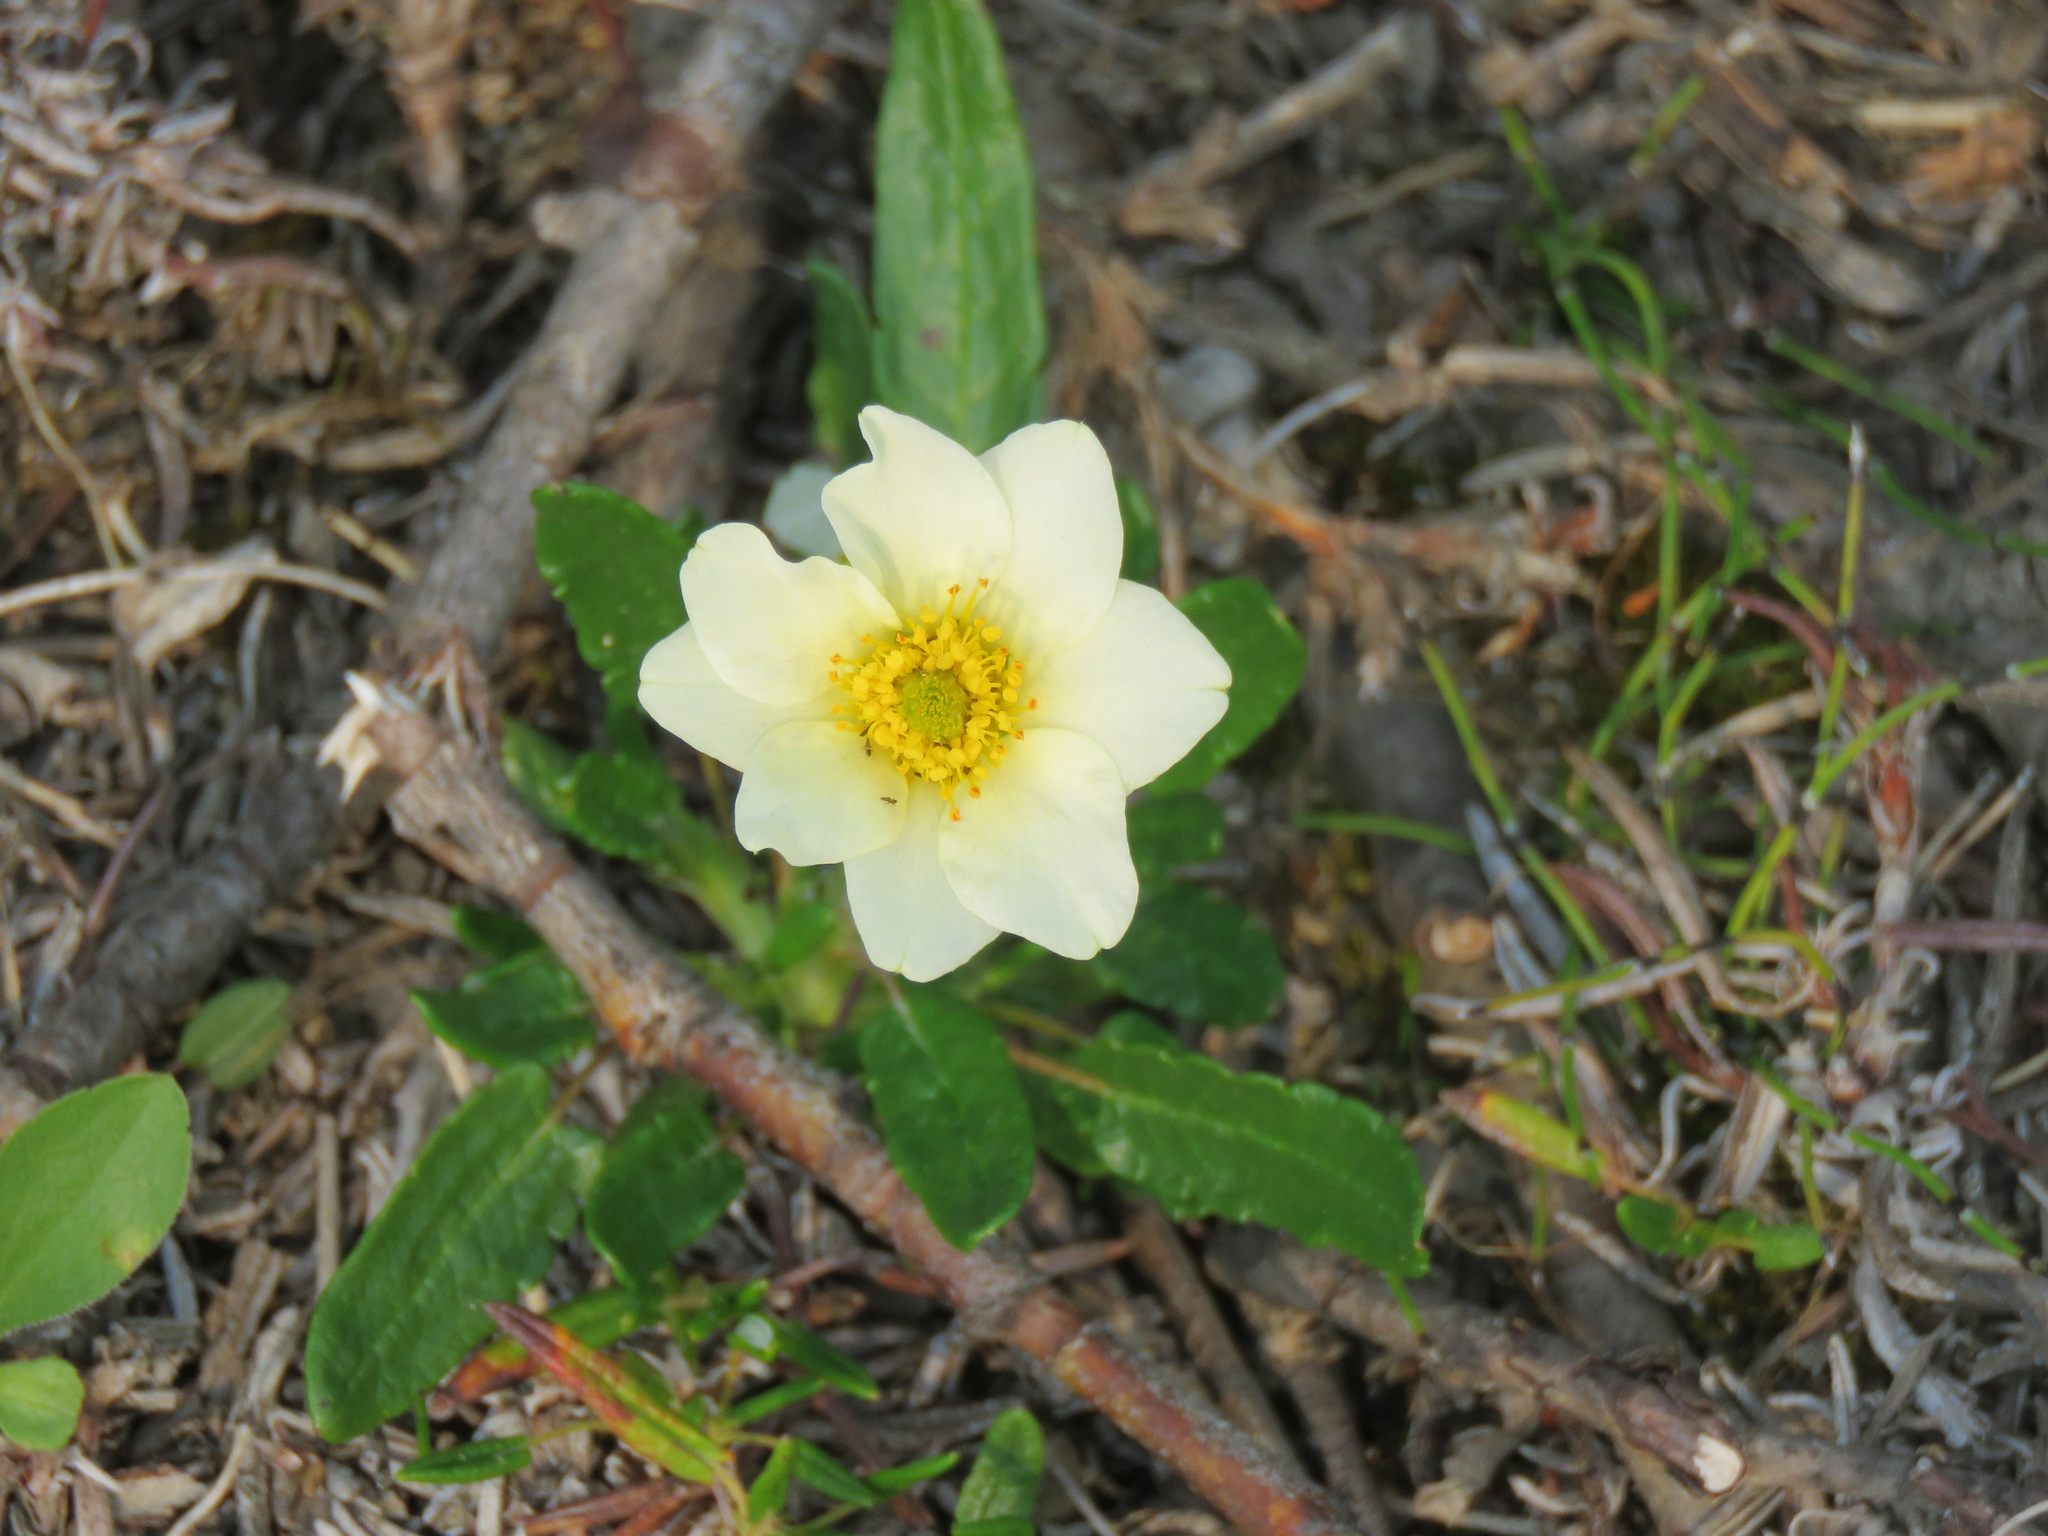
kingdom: Plantae
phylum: Tracheophyta
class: Magnoliopsida
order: Rosales
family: Rosaceae
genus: Dryas
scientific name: Dryas integrifolia
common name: Entire-leaved mountain avens
